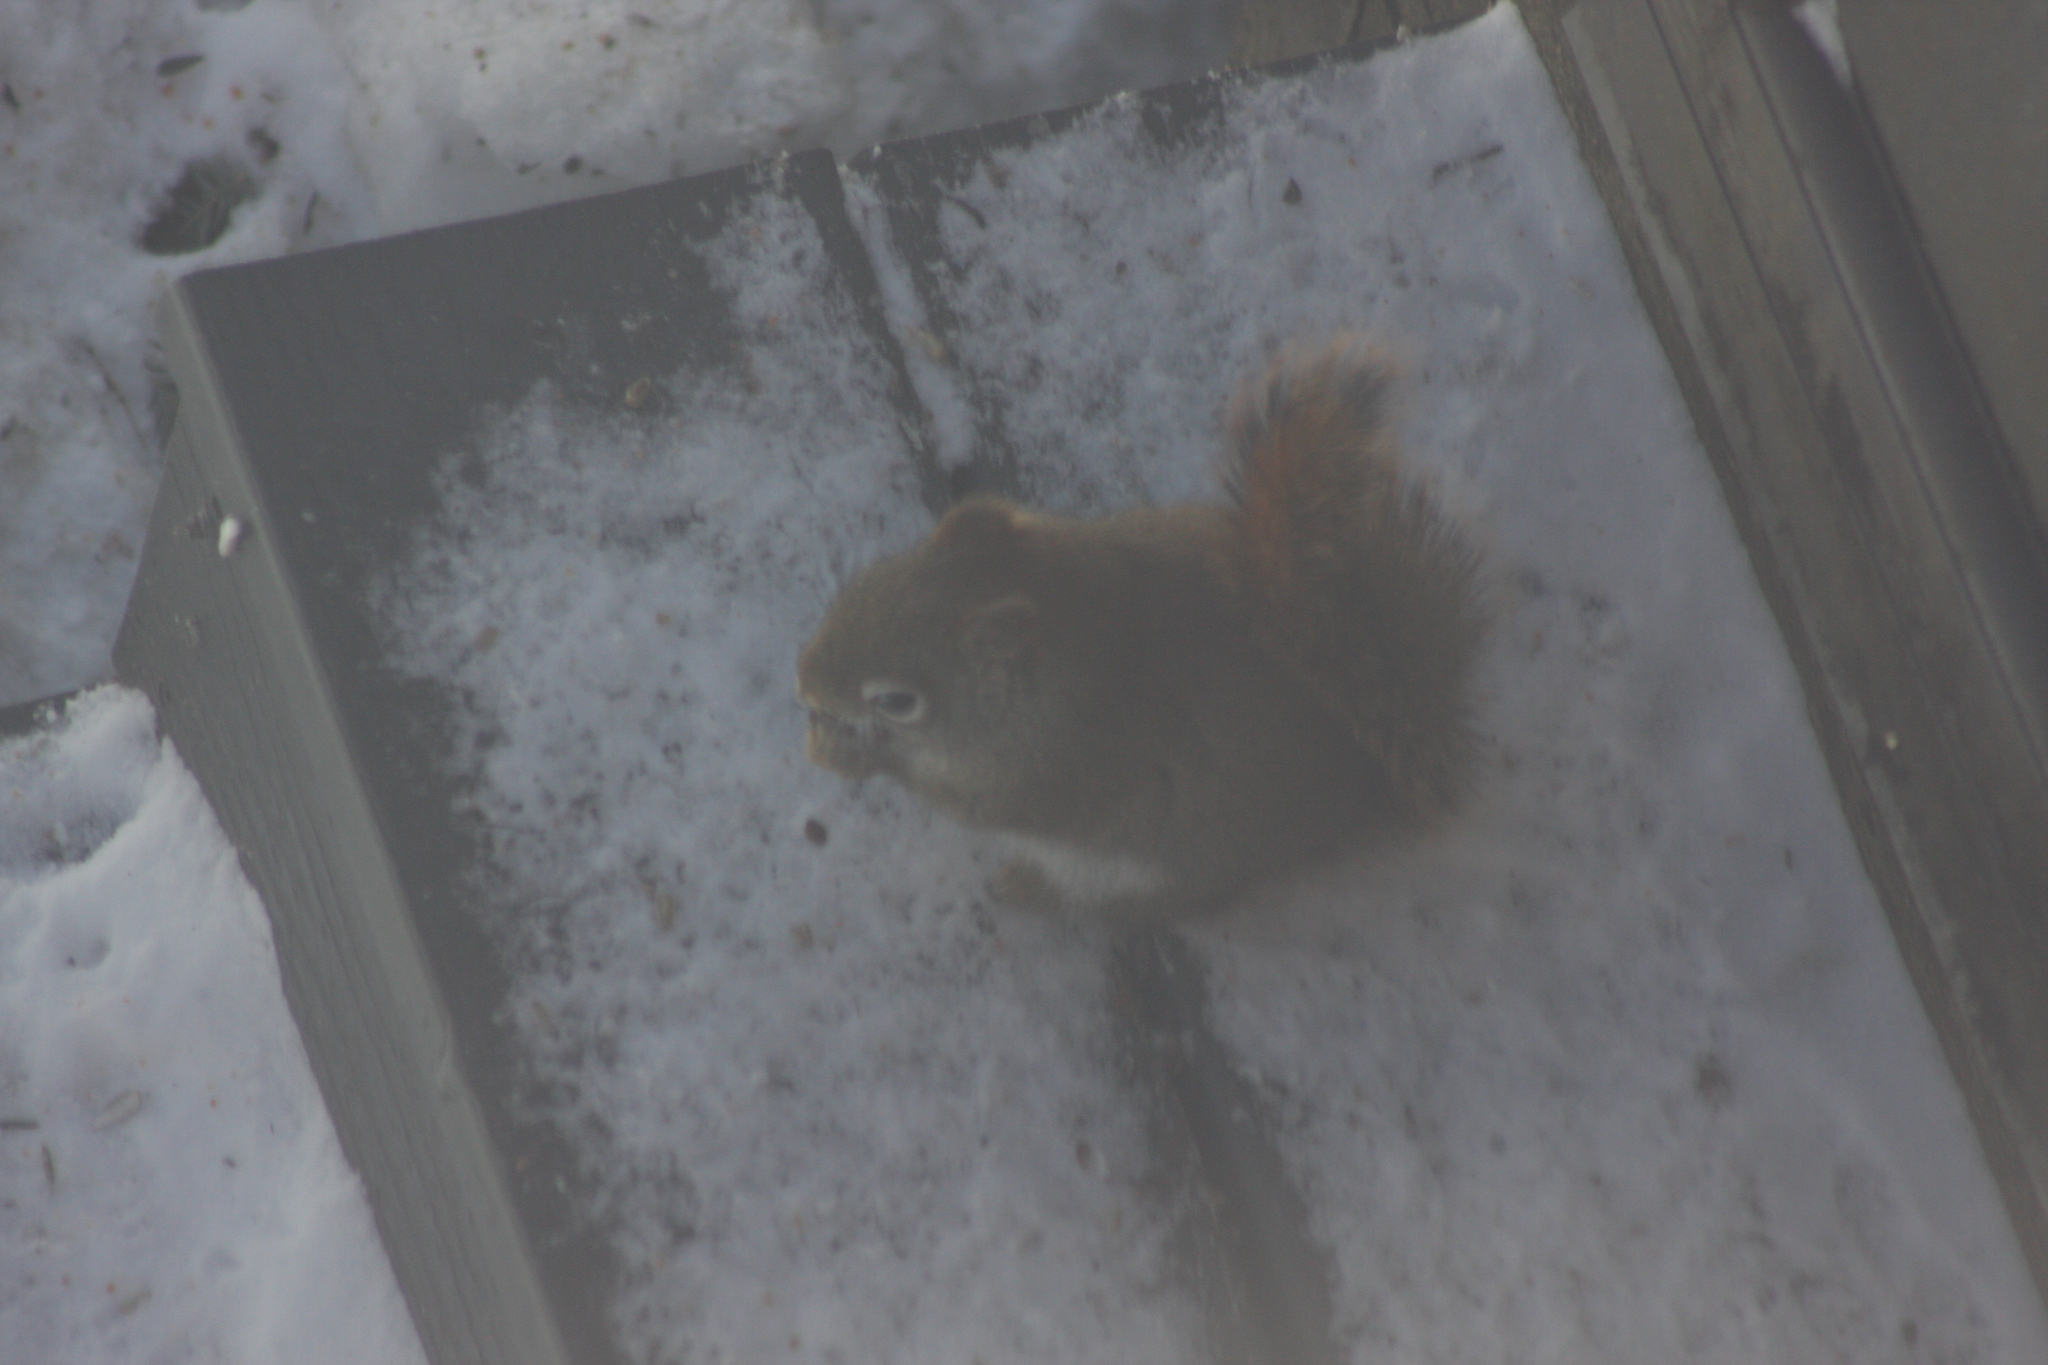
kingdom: Animalia
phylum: Chordata
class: Mammalia
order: Rodentia
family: Sciuridae
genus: Tamiasciurus
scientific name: Tamiasciurus hudsonicus
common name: Red squirrel
